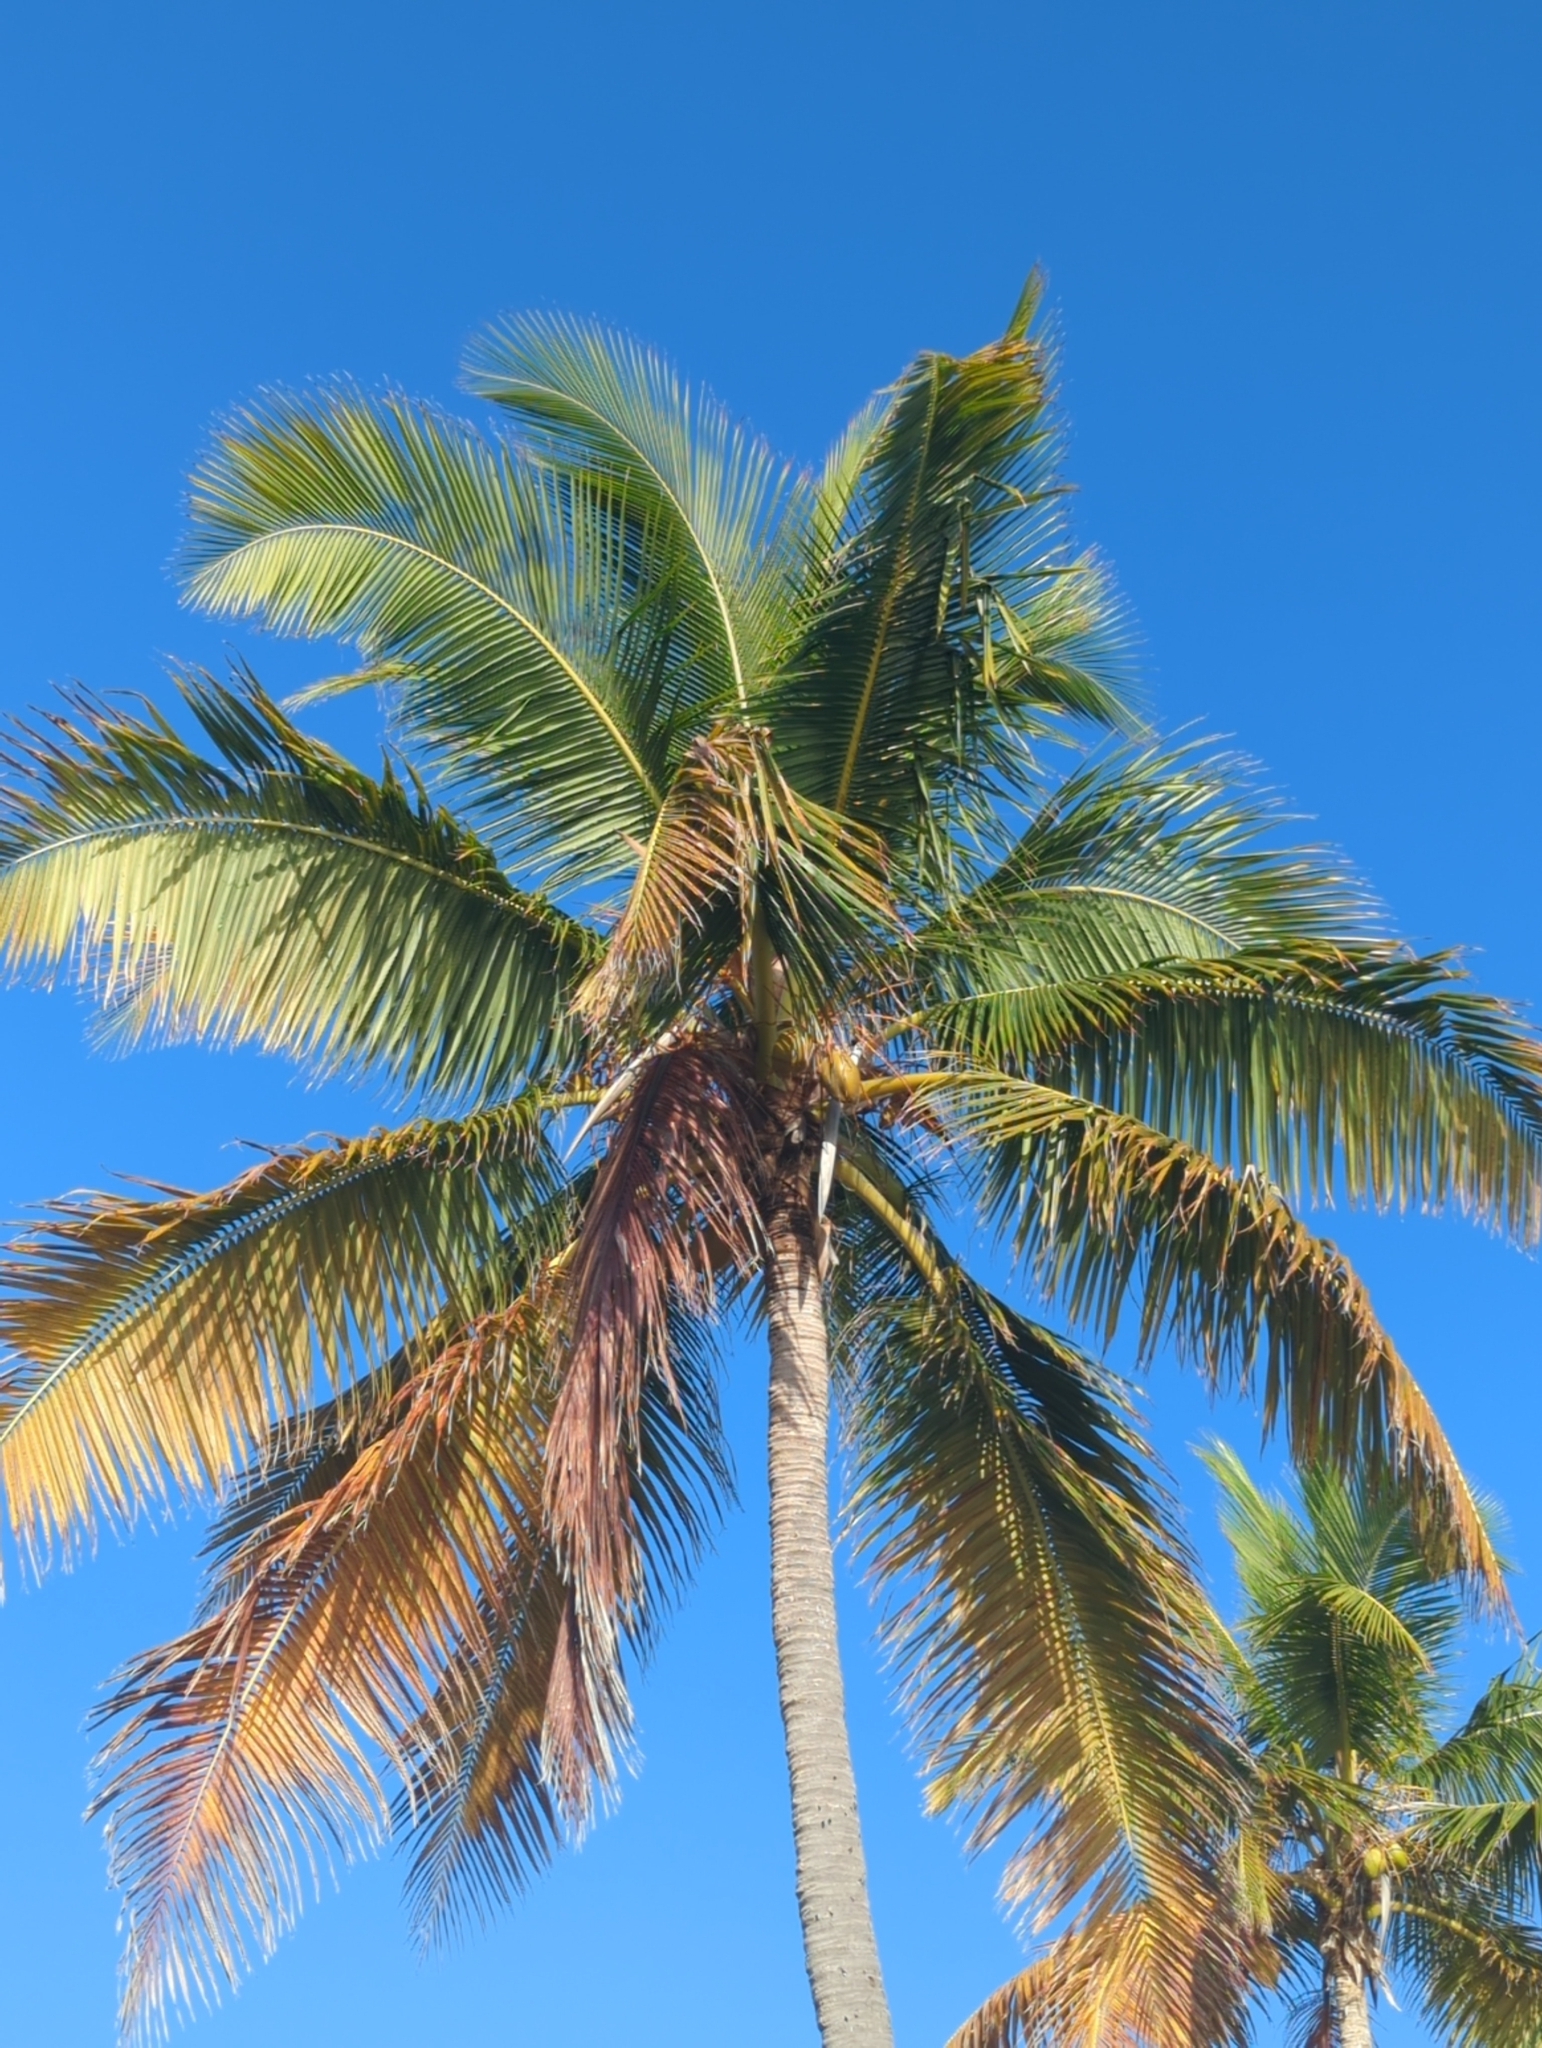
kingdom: Plantae
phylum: Tracheophyta
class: Liliopsida
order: Arecales
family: Arecaceae
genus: Cocos
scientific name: Cocos nucifera
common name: Coconut palm
